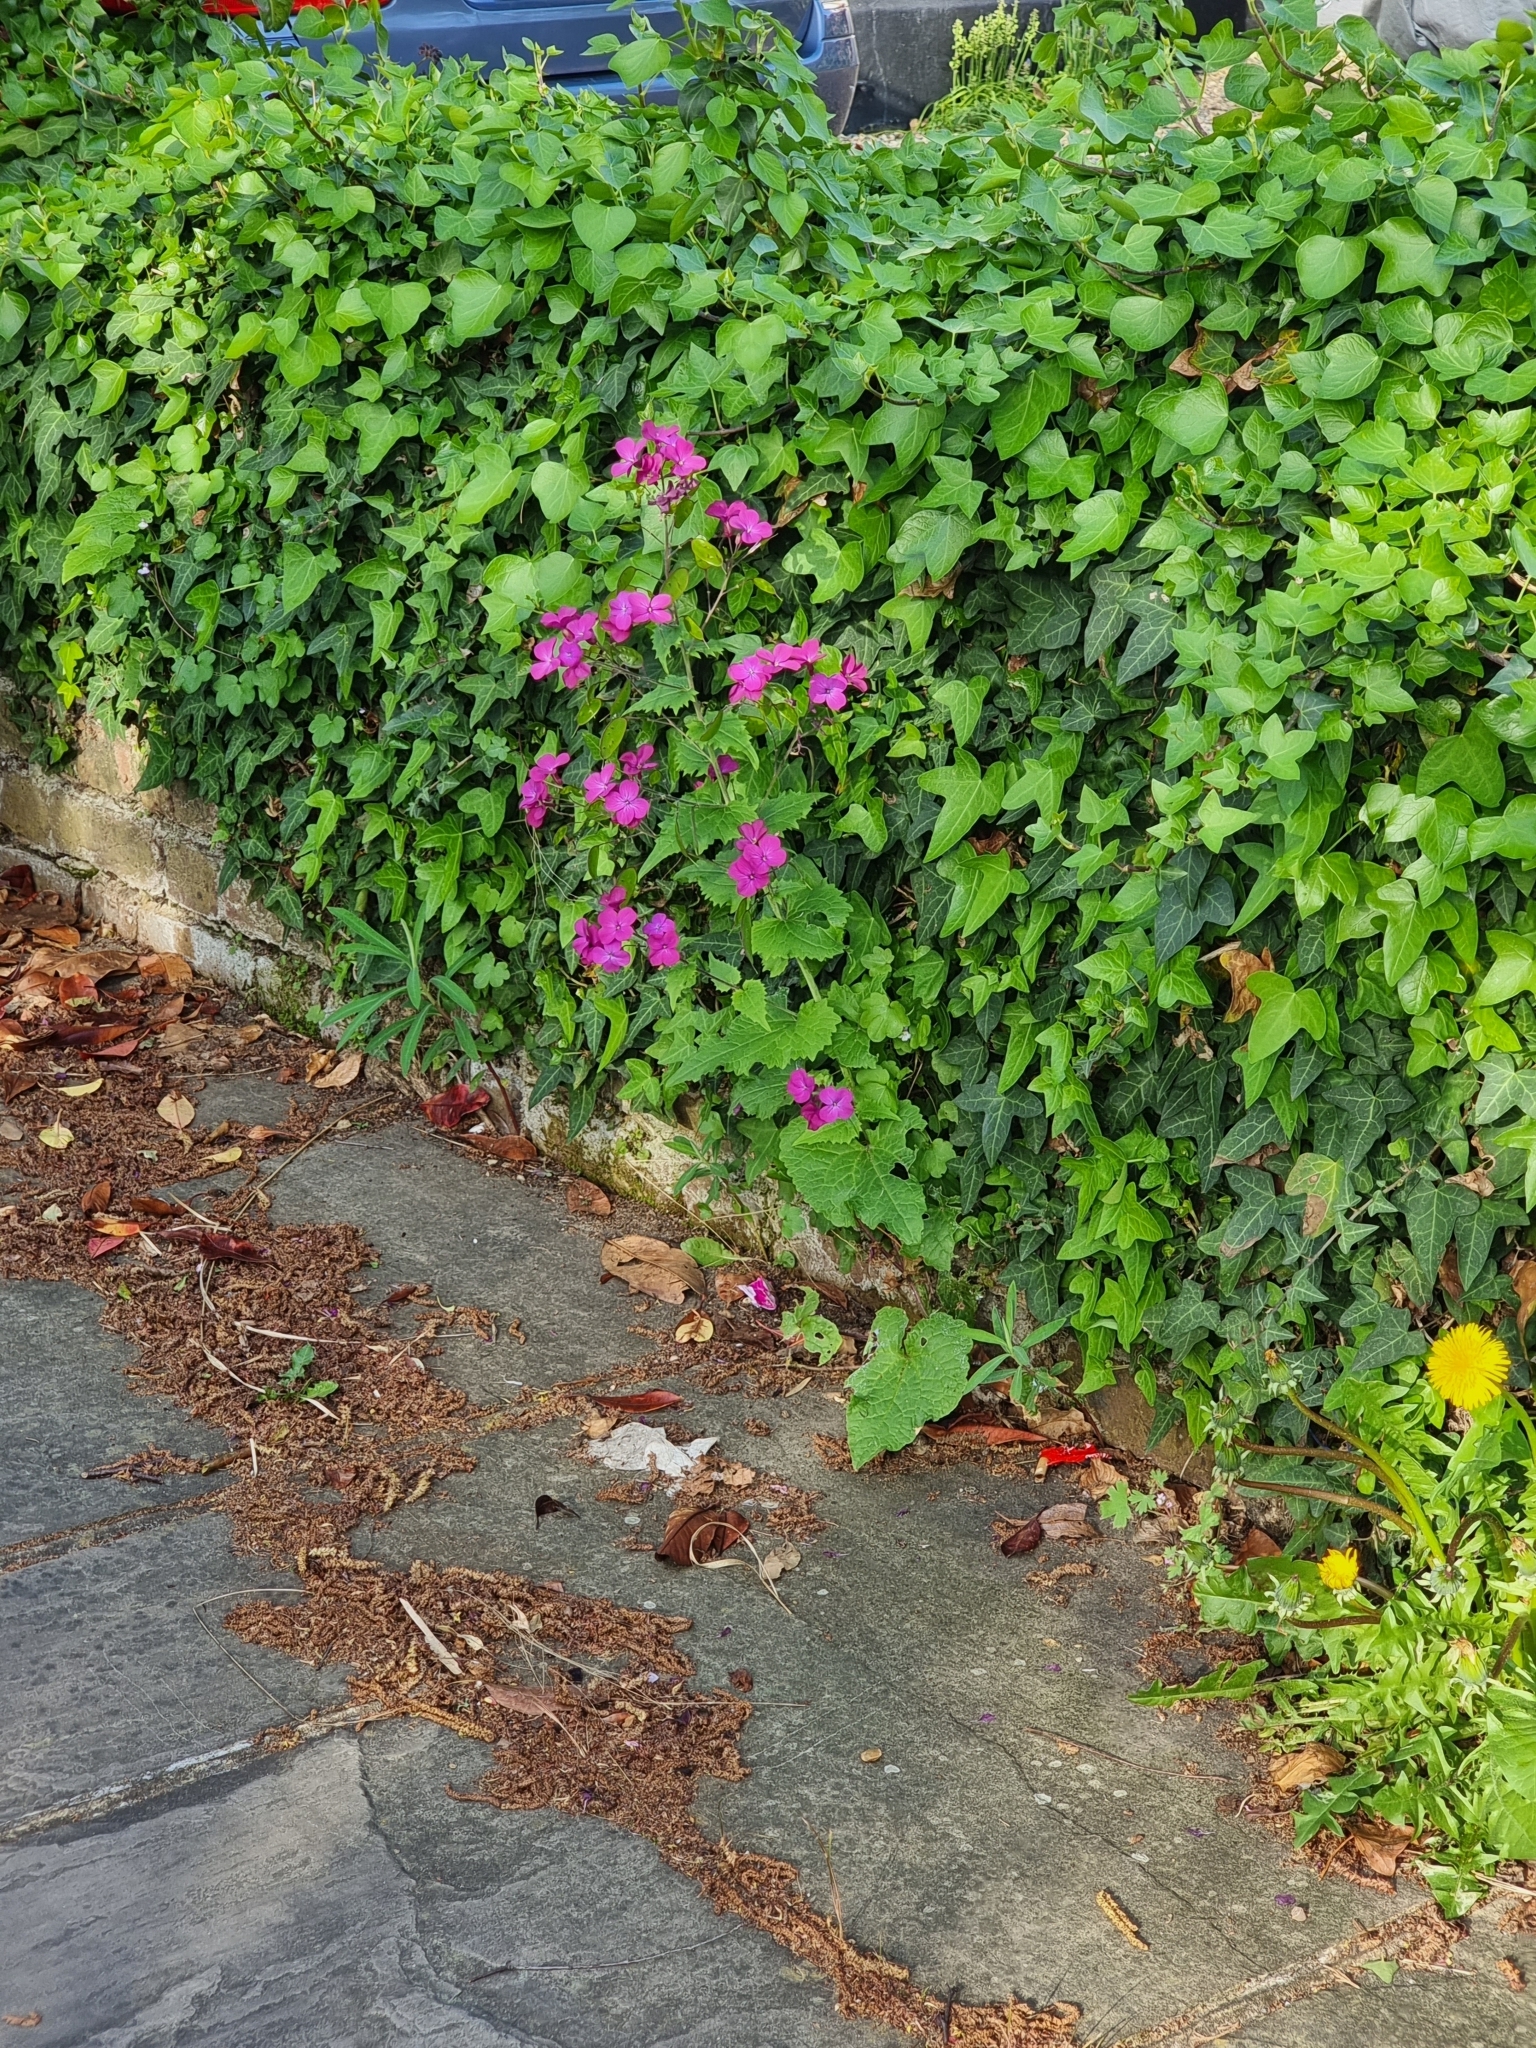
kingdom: Plantae
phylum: Tracheophyta
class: Magnoliopsida
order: Brassicales
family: Brassicaceae
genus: Lunaria
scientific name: Lunaria annua
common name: Honesty
